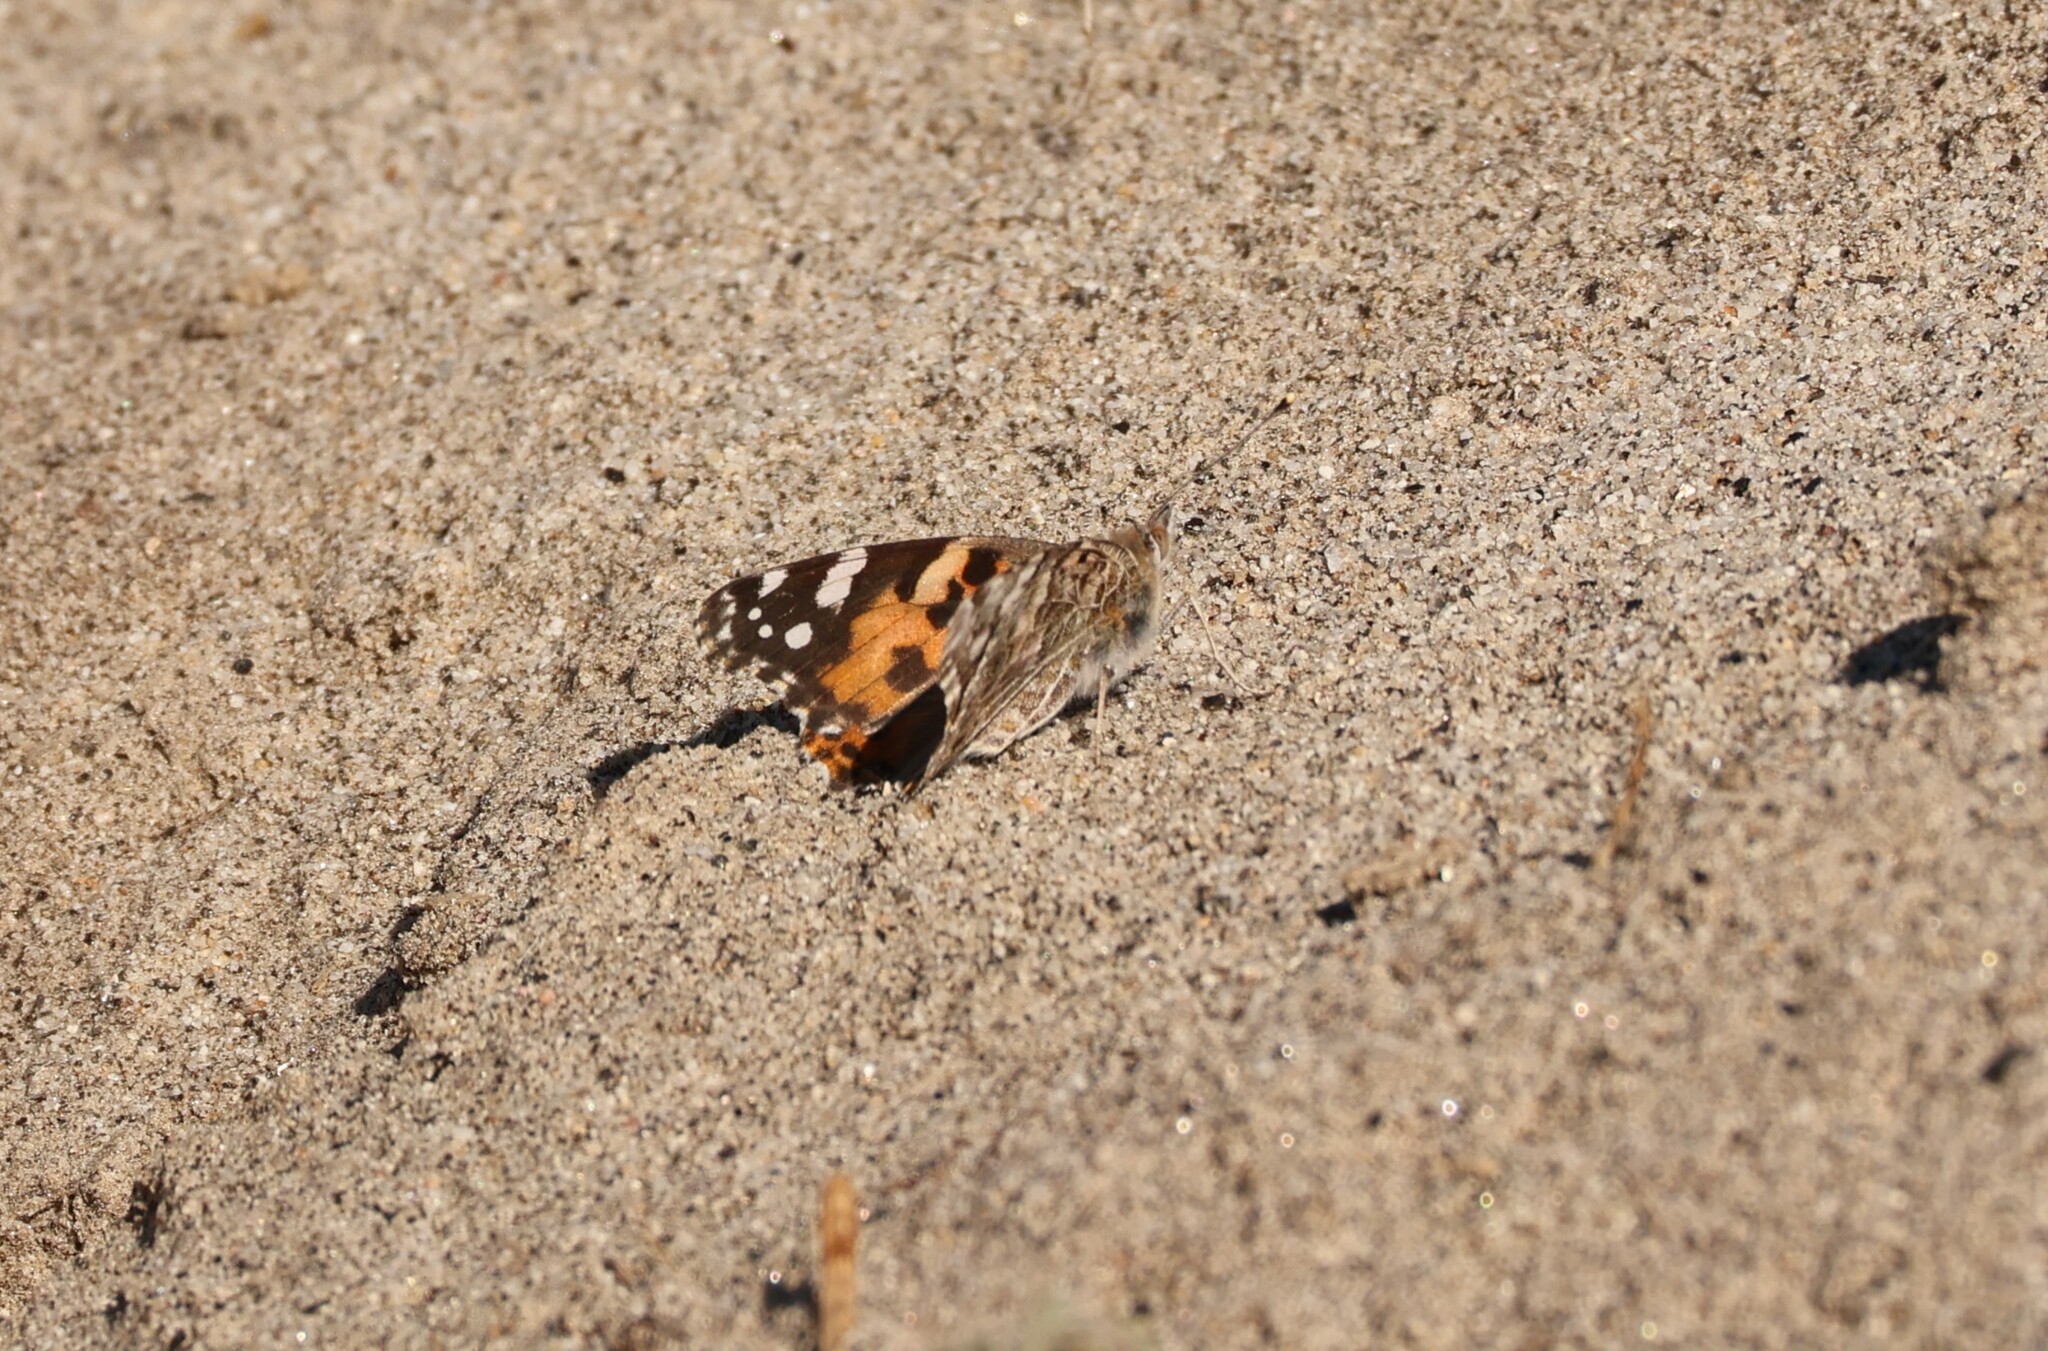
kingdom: Animalia
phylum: Arthropoda
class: Insecta
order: Lepidoptera
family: Nymphalidae
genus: Vanessa
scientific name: Vanessa cardui
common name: Painted lady
